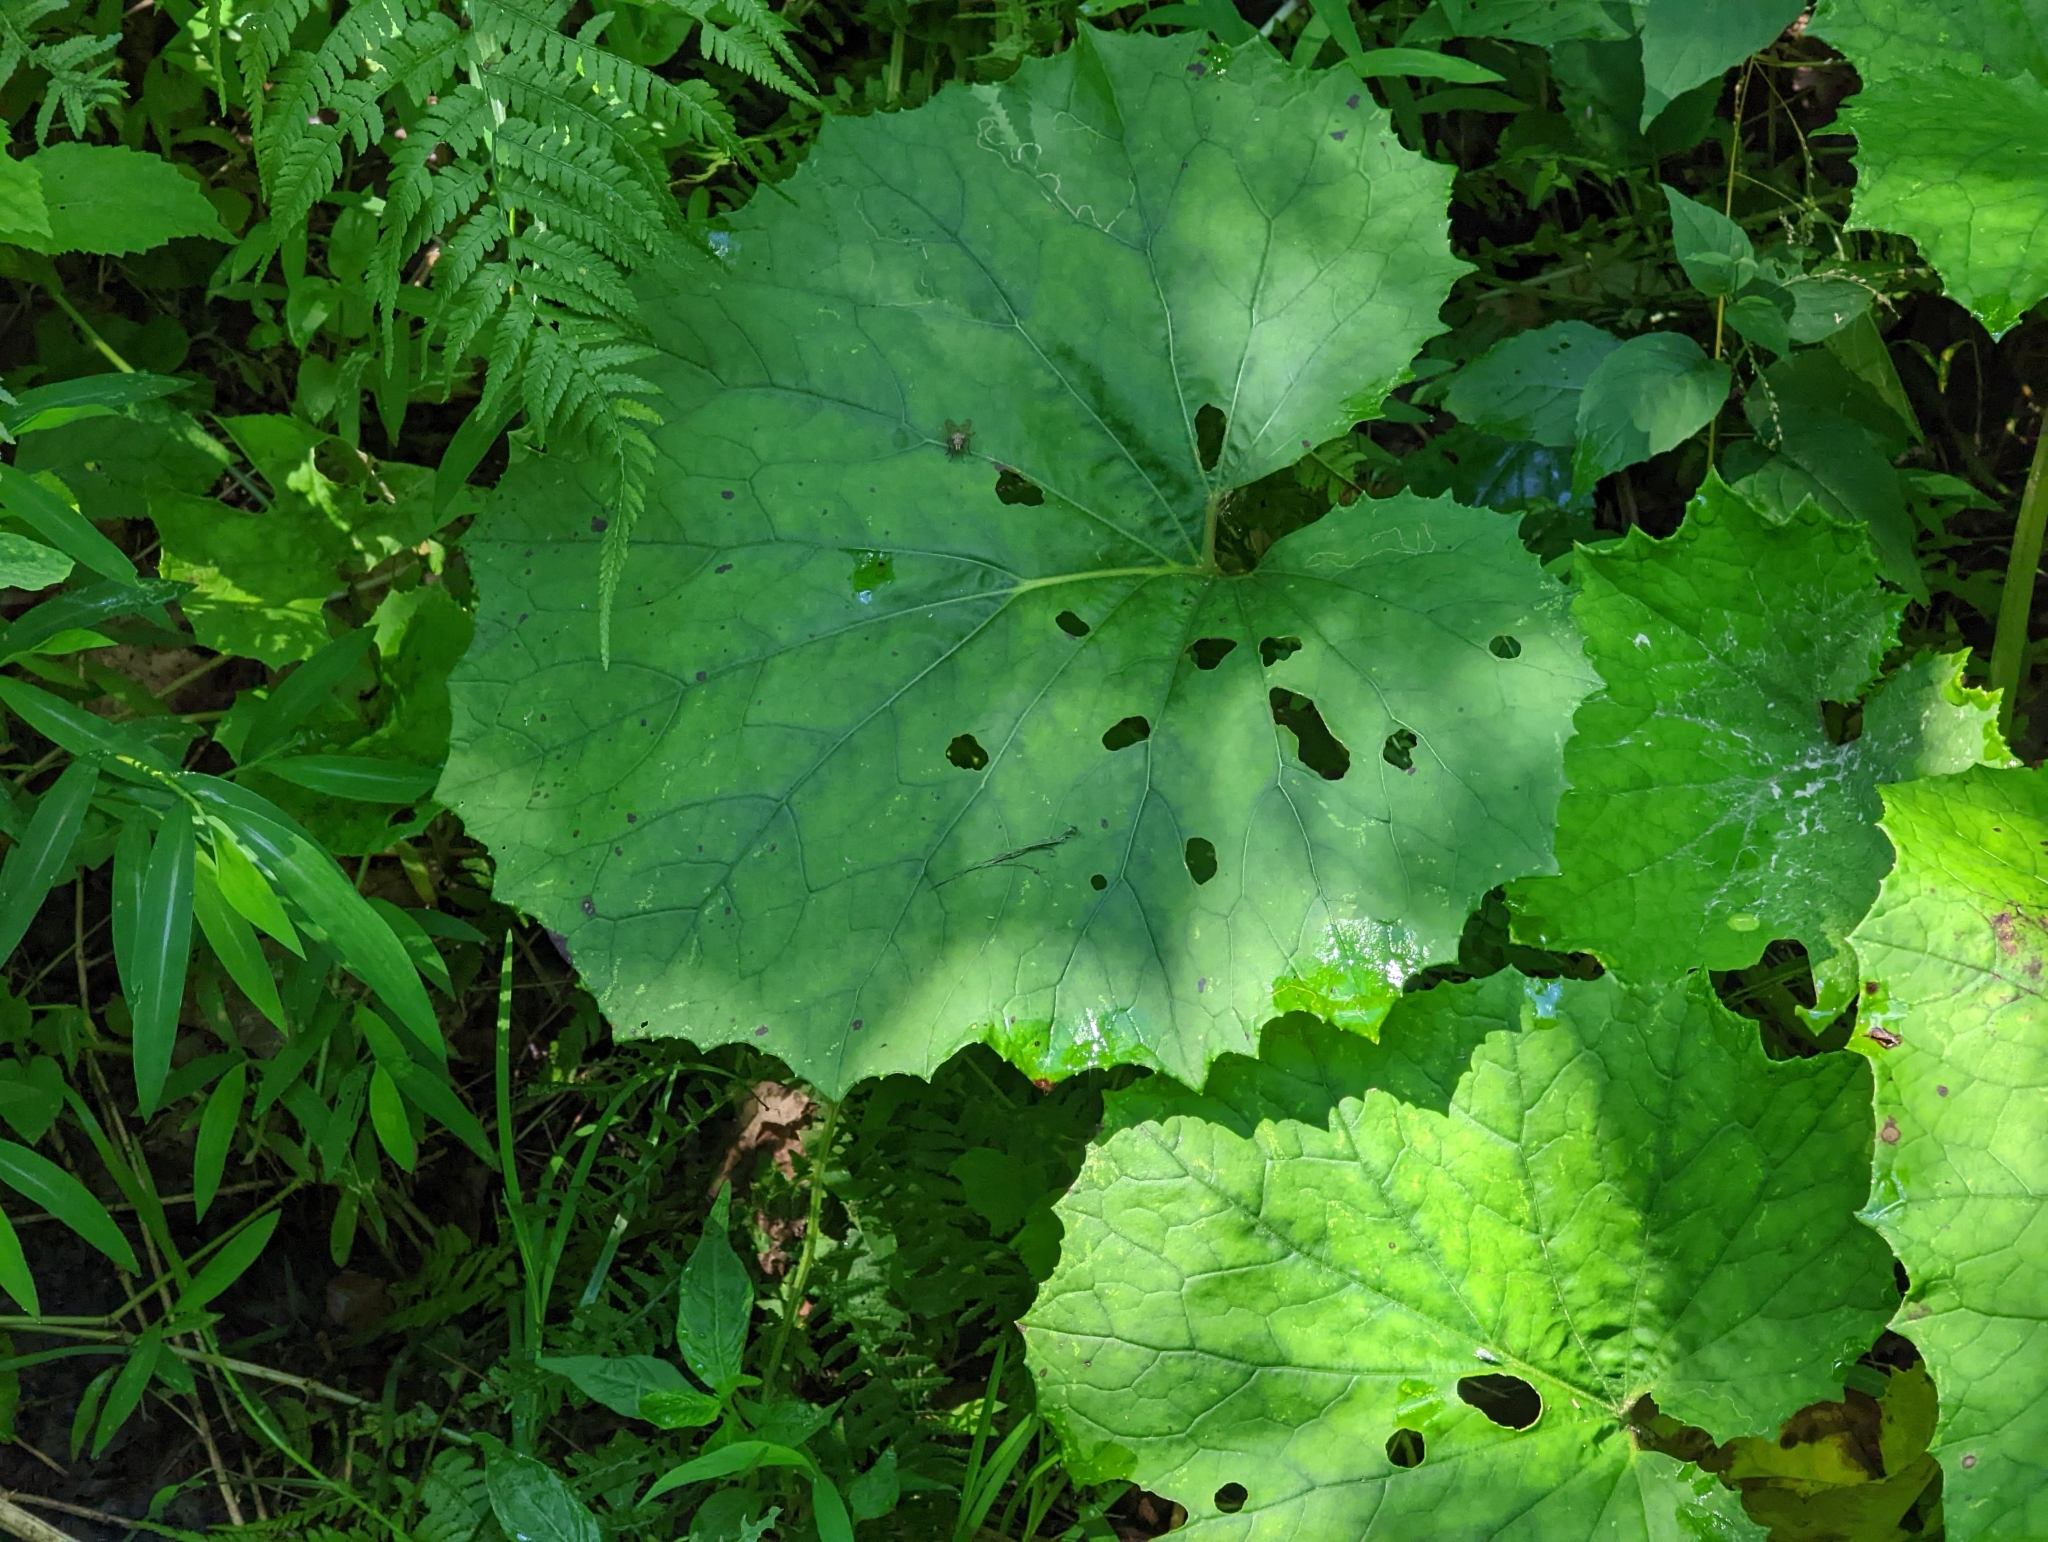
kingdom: Plantae
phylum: Tracheophyta
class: Magnoliopsida
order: Asterales
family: Asteraceae
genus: Tussilago
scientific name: Tussilago farfara
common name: Coltsfoot
